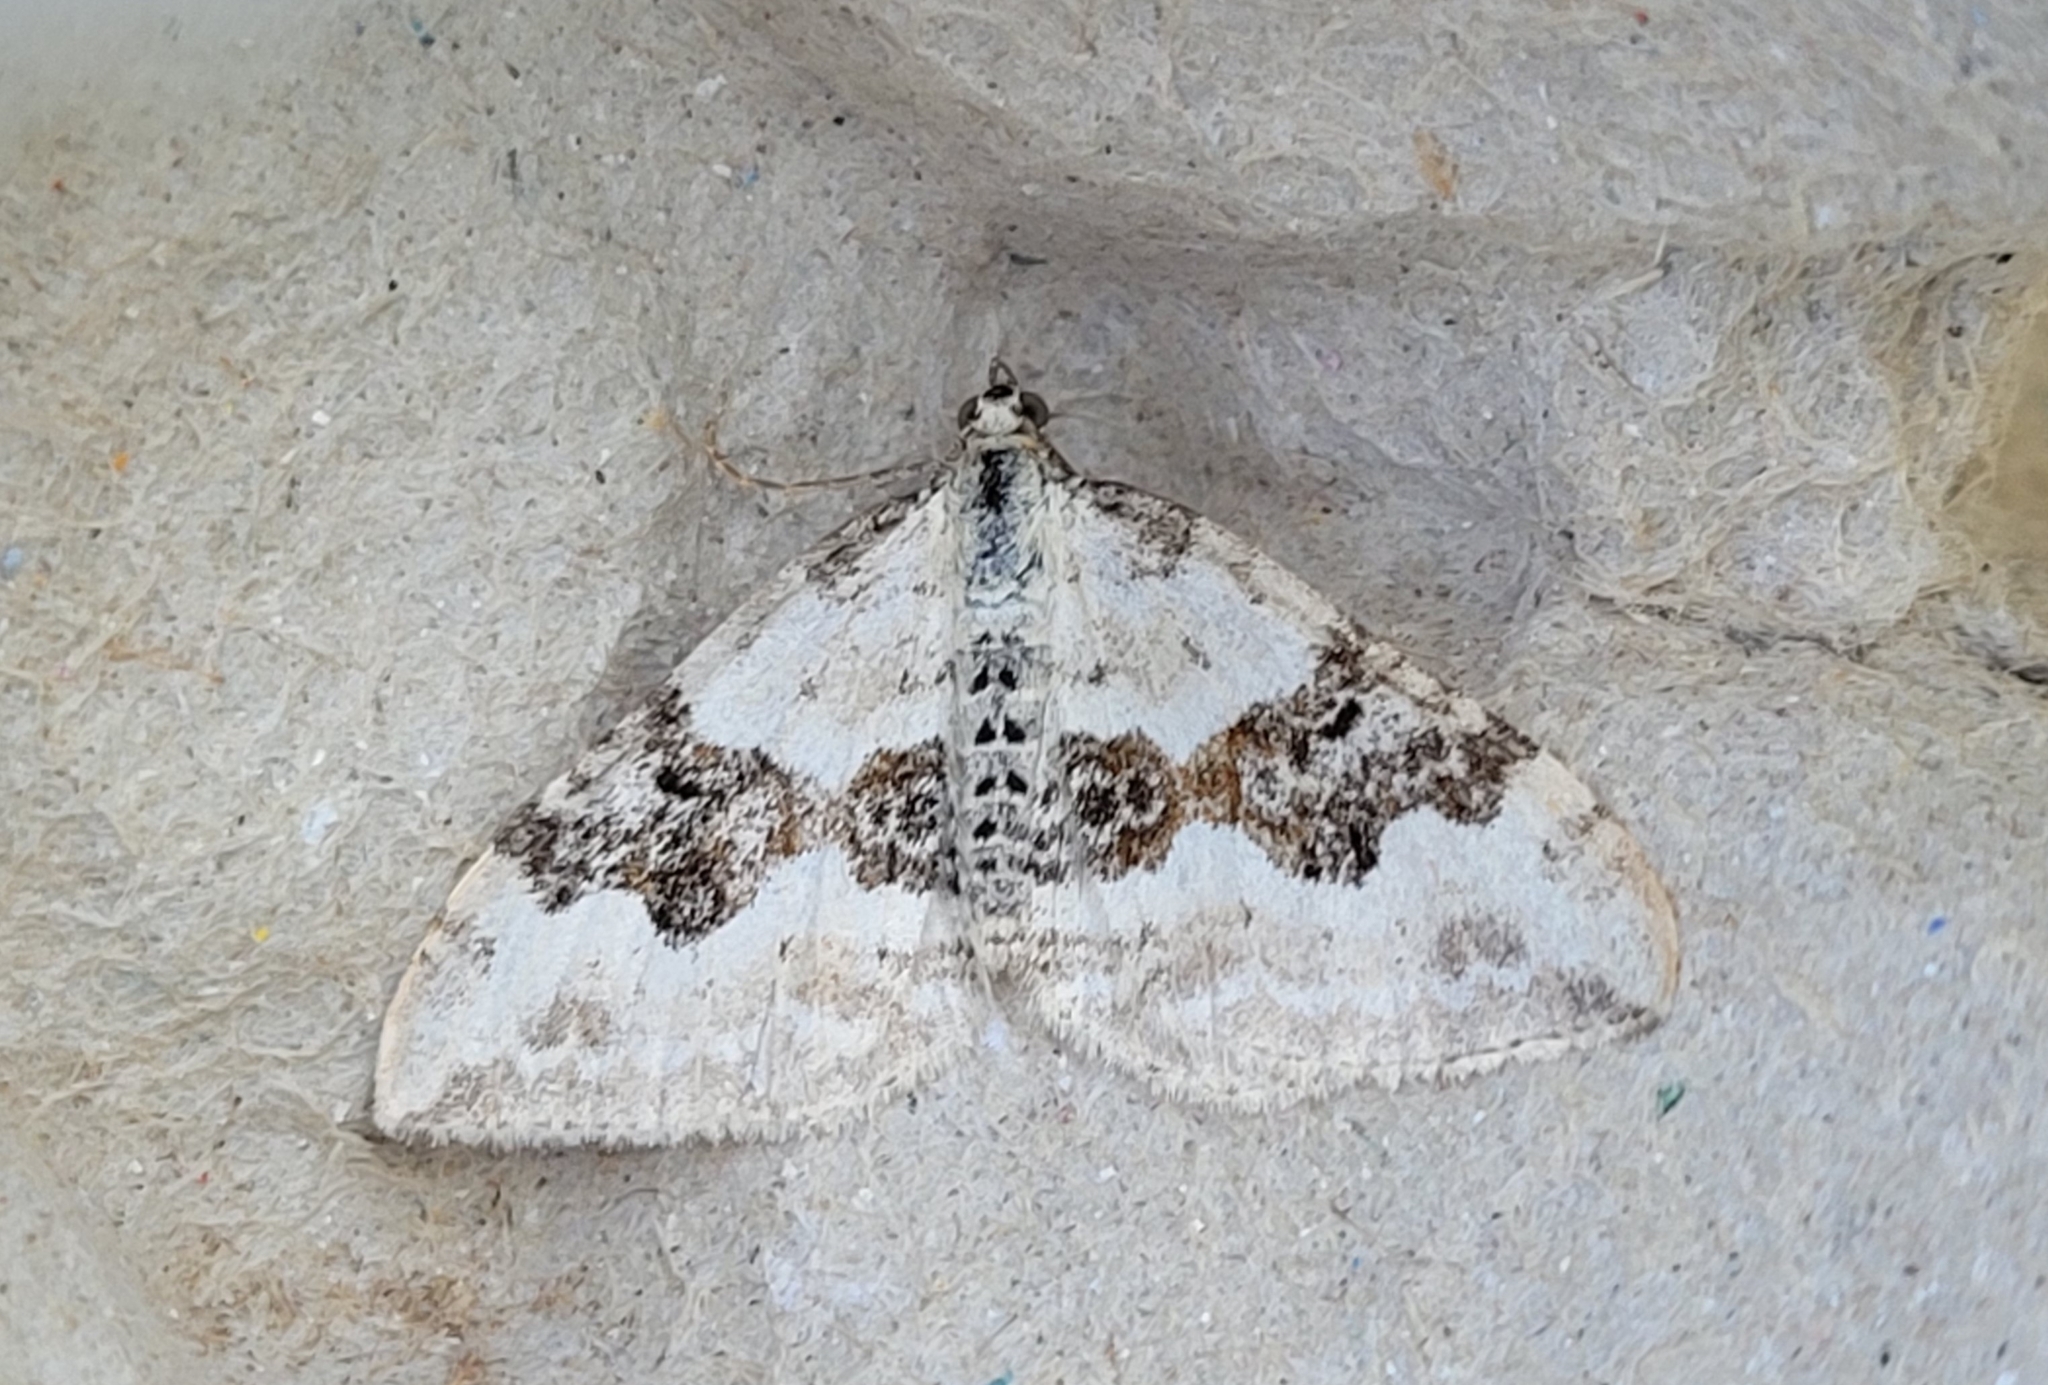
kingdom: Animalia
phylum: Arthropoda
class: Insecta
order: Lepidoptera
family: Geometridae
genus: Xanthorhoe
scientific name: Xanthorhoe montanata
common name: Silver-ground carpet
